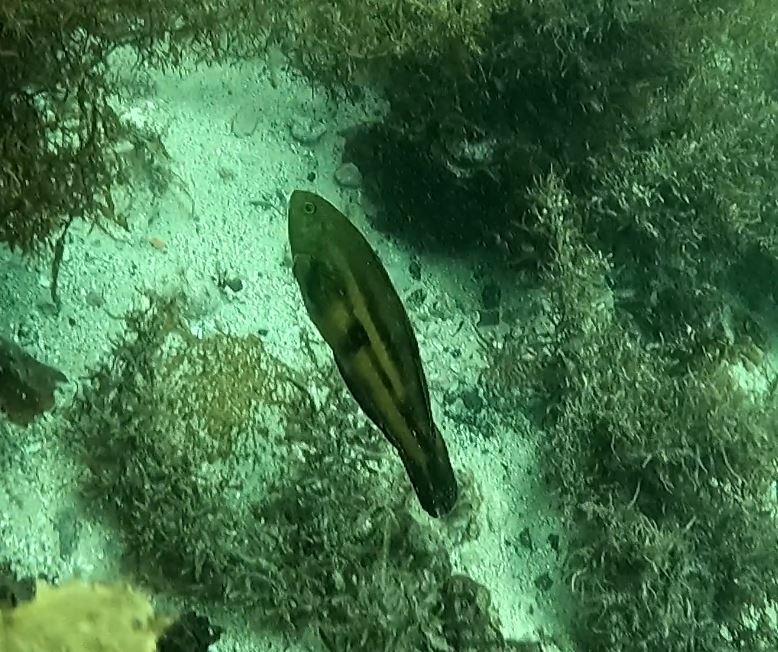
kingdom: Animalia
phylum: Chordata
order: Perciformes
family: Labridae
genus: Pictilabrus
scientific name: Pictilabrus laticlavius
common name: Patrician wrasse
